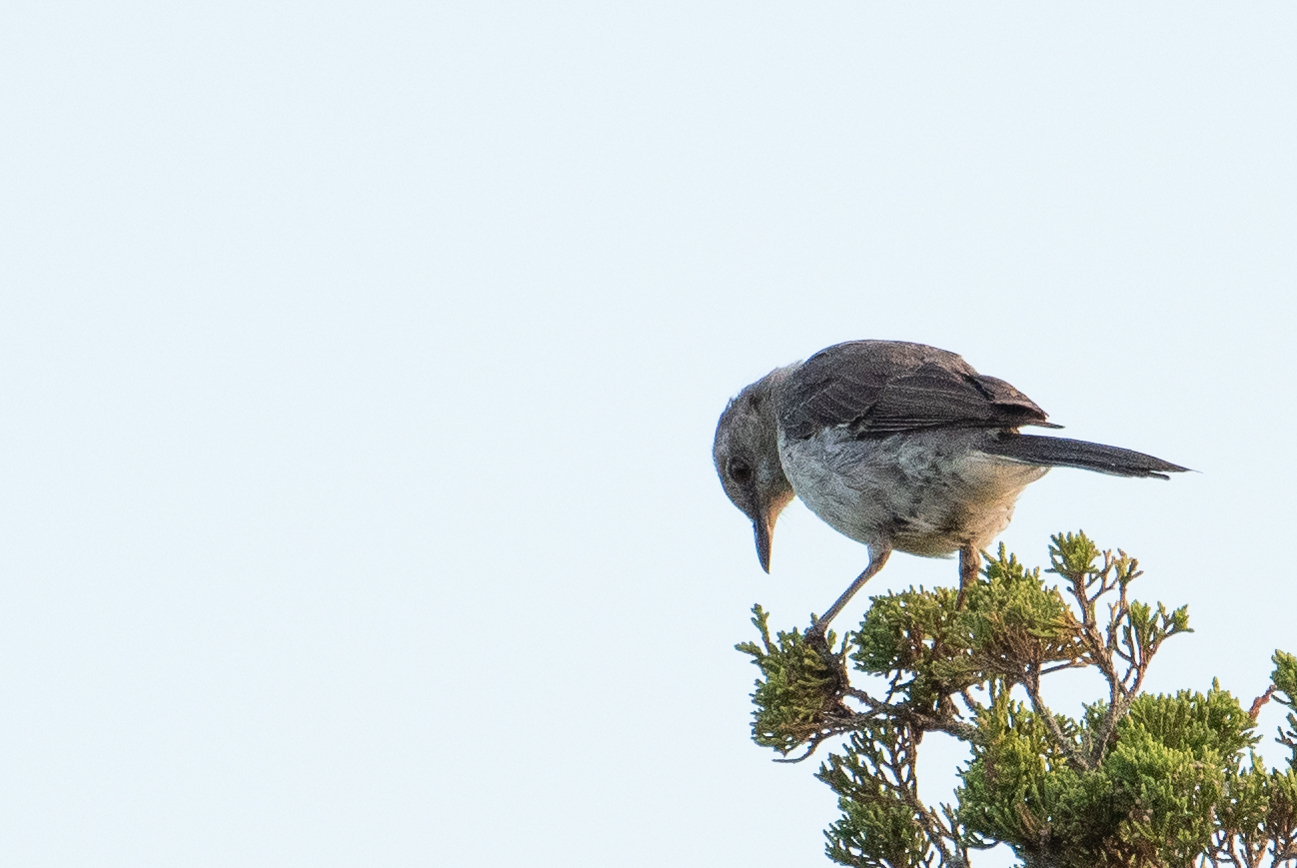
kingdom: Animalia
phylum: Chordata
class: Aves
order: Passeriformes
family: Mimidae
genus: Mimus
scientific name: Mimus polyglottos
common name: Northern mockingbird
